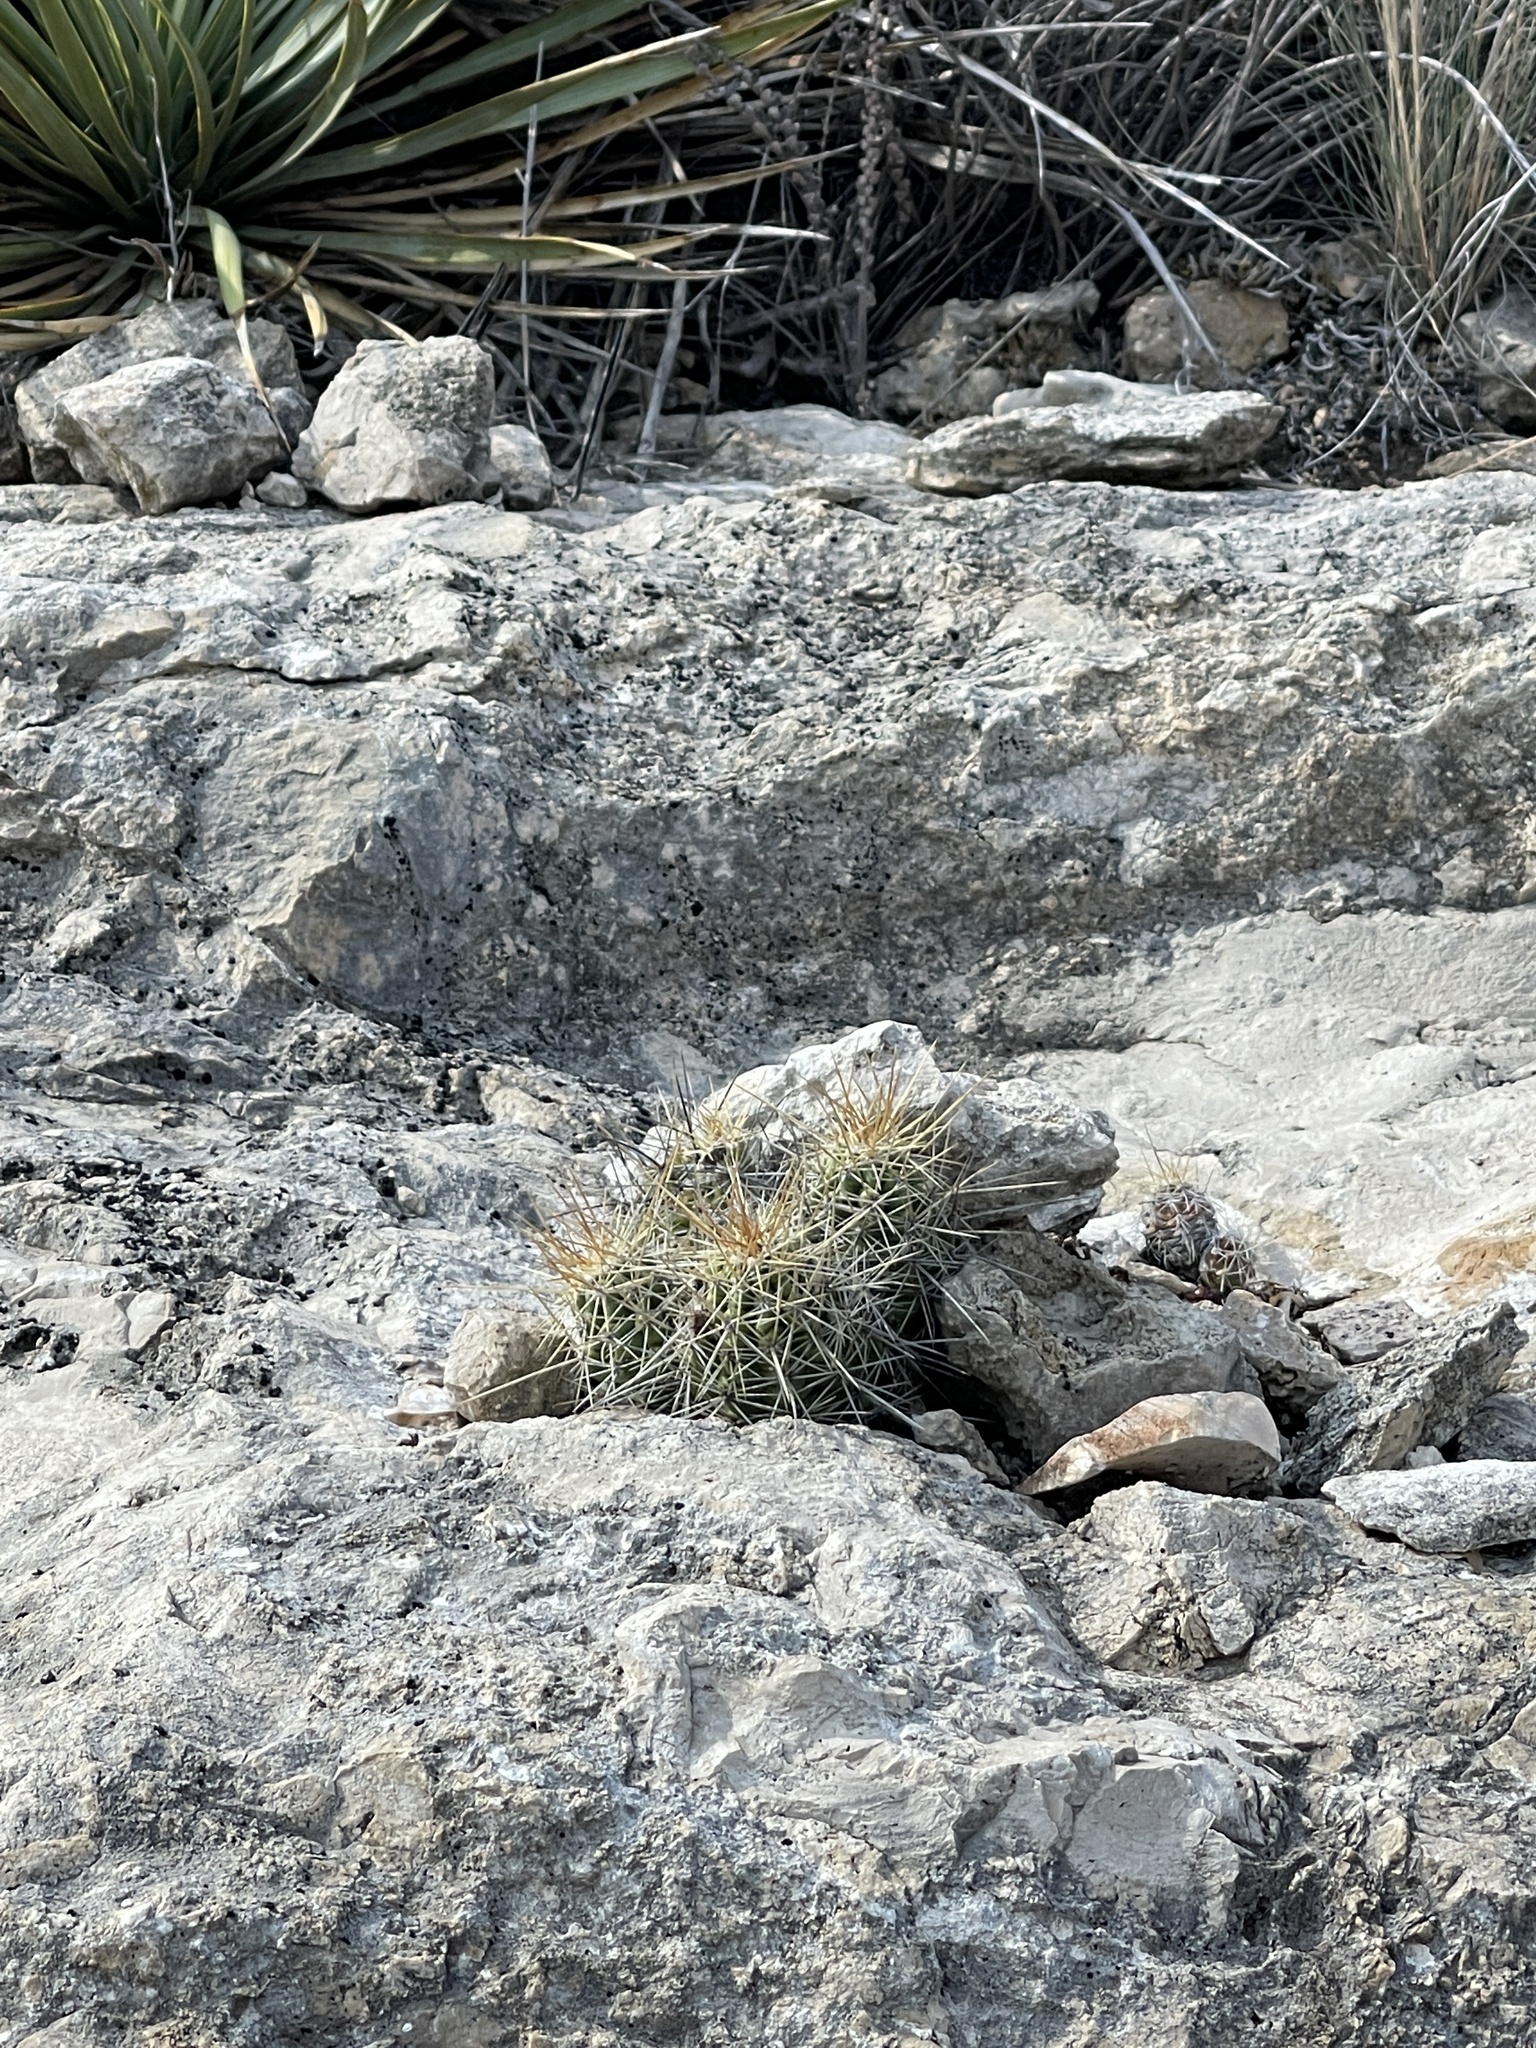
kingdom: Plantae
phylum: Tracheophyta
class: Magnoliopsida
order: Caryophyllales
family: Cactaceae
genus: Echinocereus
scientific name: Echinocereus enneacanthus
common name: Pitaya
